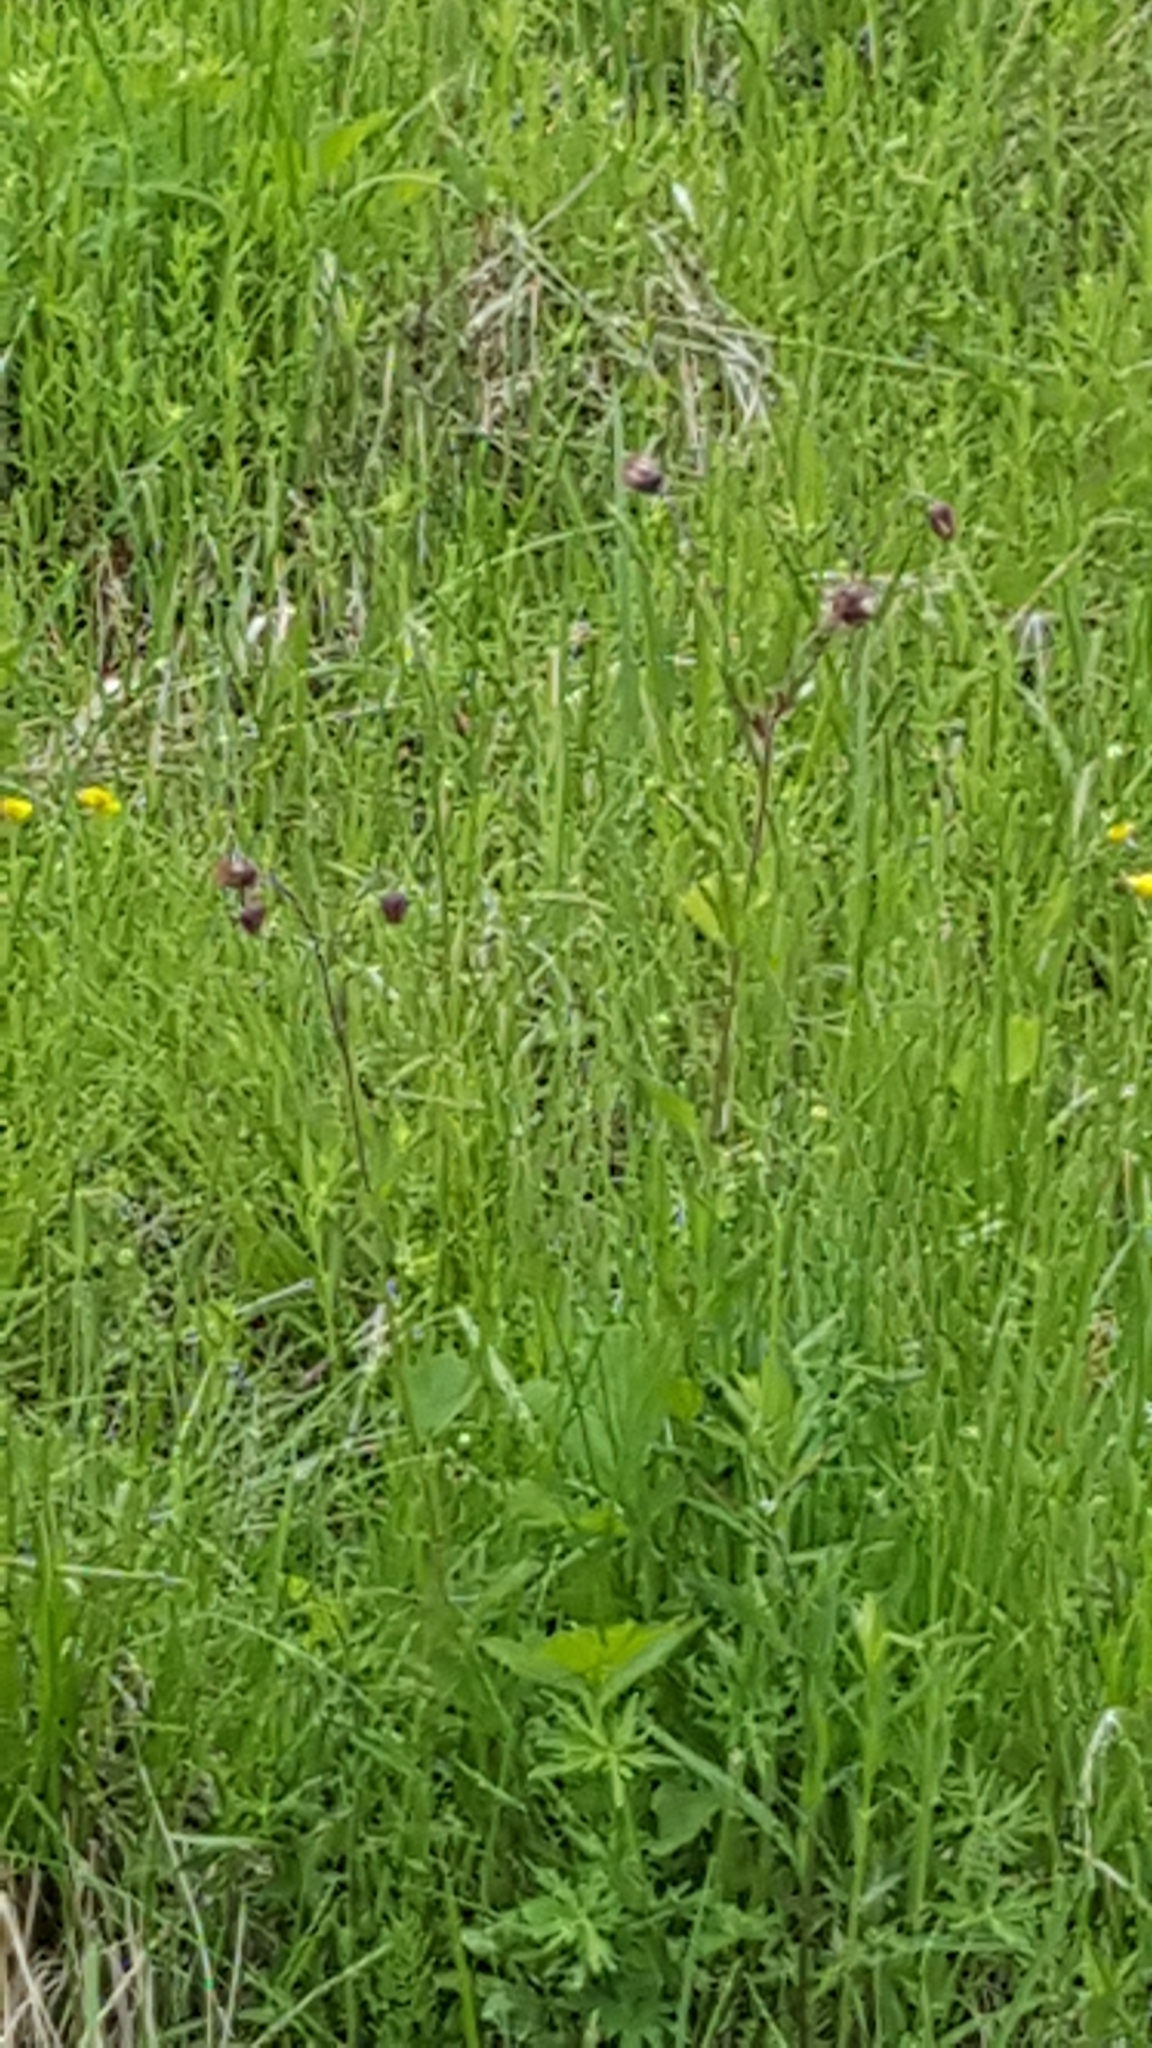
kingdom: Plantae
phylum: Tracheophyta
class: Magnoliopsida
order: Rosales
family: Rosaceae
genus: Geum
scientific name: Geum rivale
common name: Water avens
